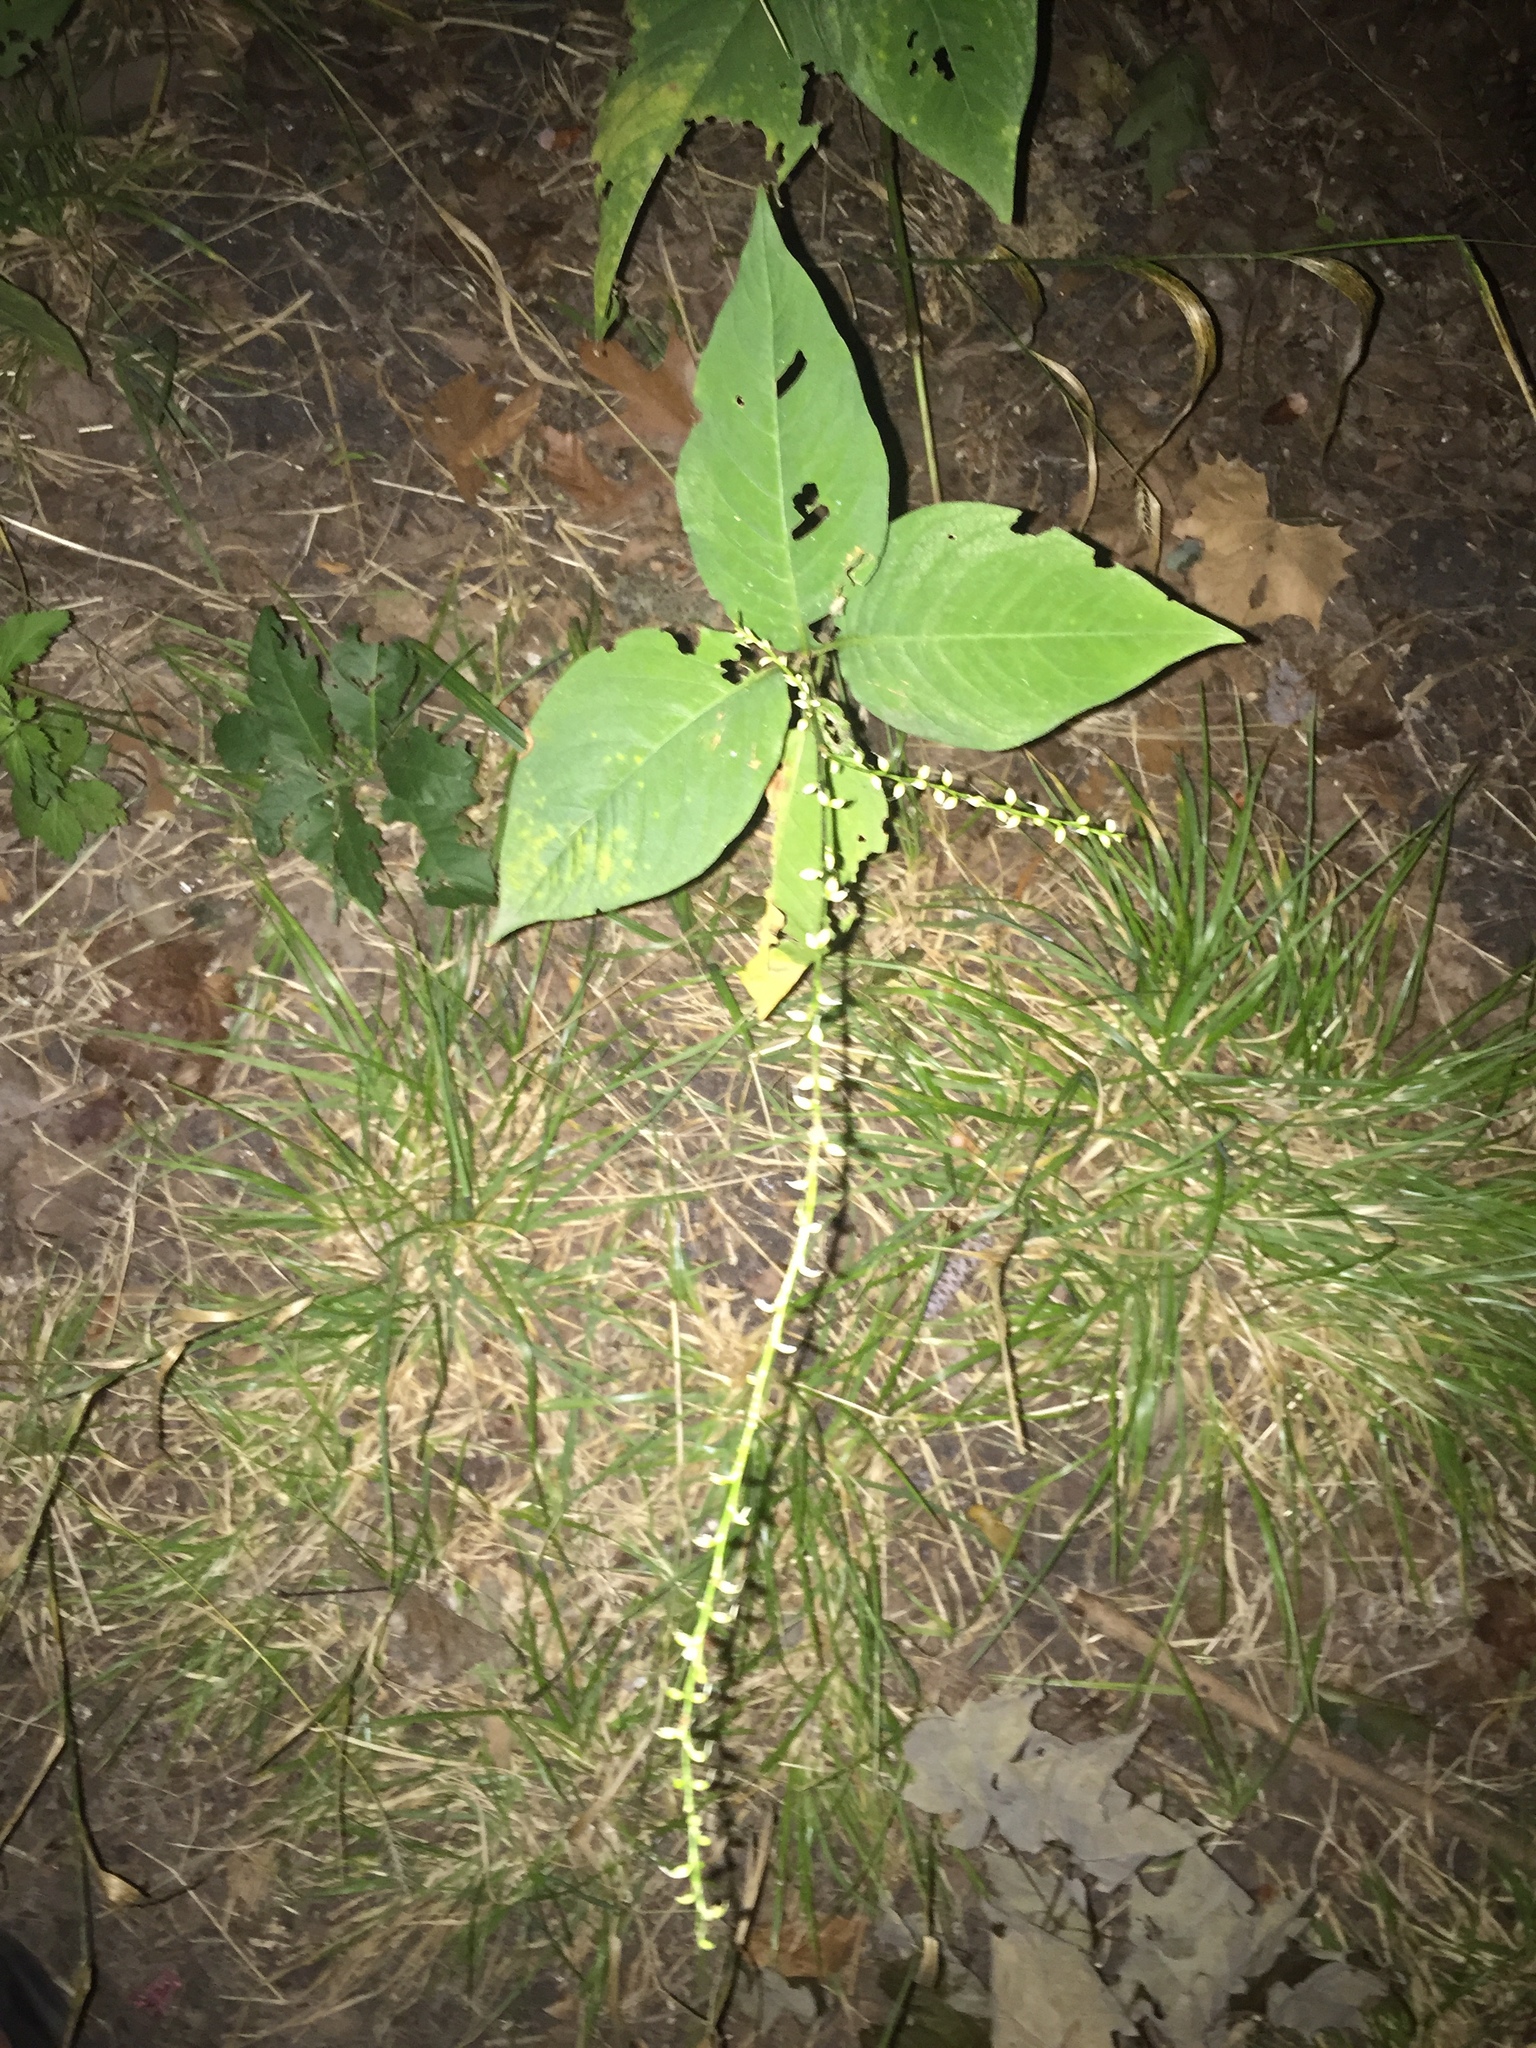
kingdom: Plantae
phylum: Tracheophyta
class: Magnoliopsida
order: Caryophyllales
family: Polygonaceae
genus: Persicaria
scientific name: Persicaria virginiana
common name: Jumpseed
